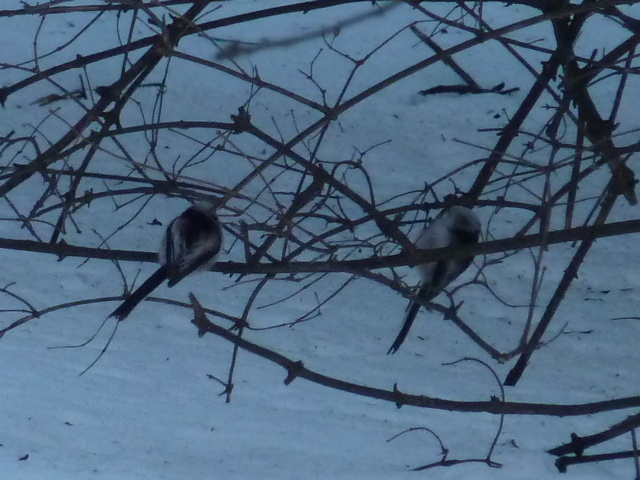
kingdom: Animalia
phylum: Chordata
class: Aves
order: Passeriformes
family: Aegithalidae
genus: Aegithalos
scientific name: Aegithalos caudatus
